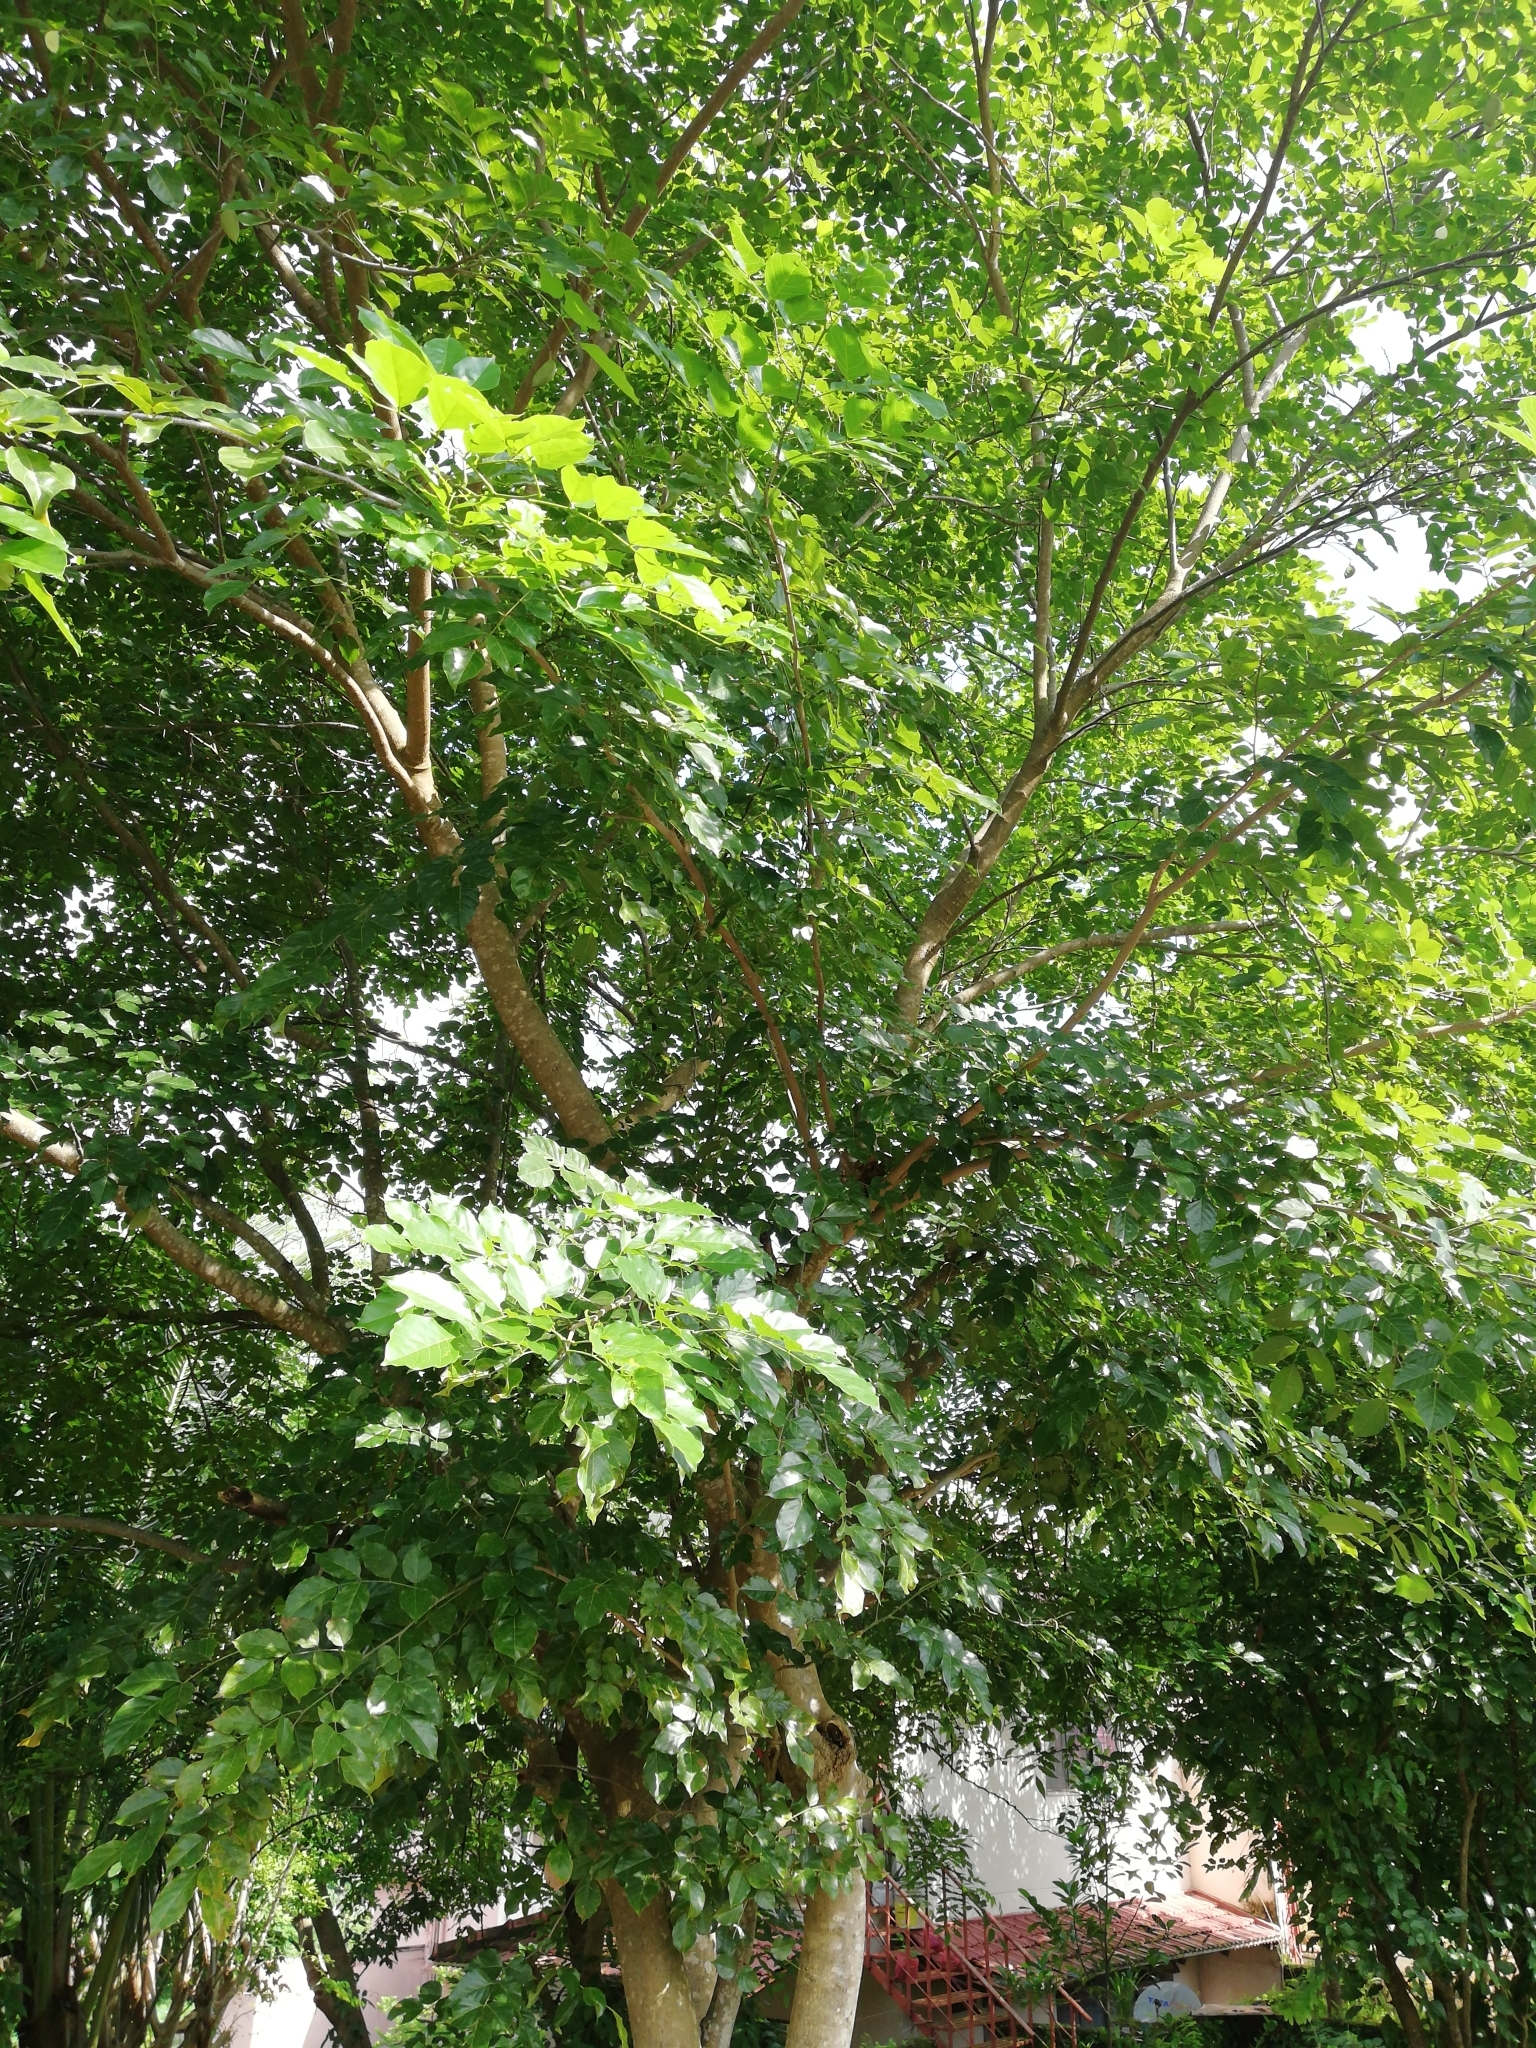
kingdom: Plantae
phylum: Tracheophyta
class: Magnoliopsida
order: Fabales
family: Fabaceae
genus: Pongamia
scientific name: Pongamia pinnata
